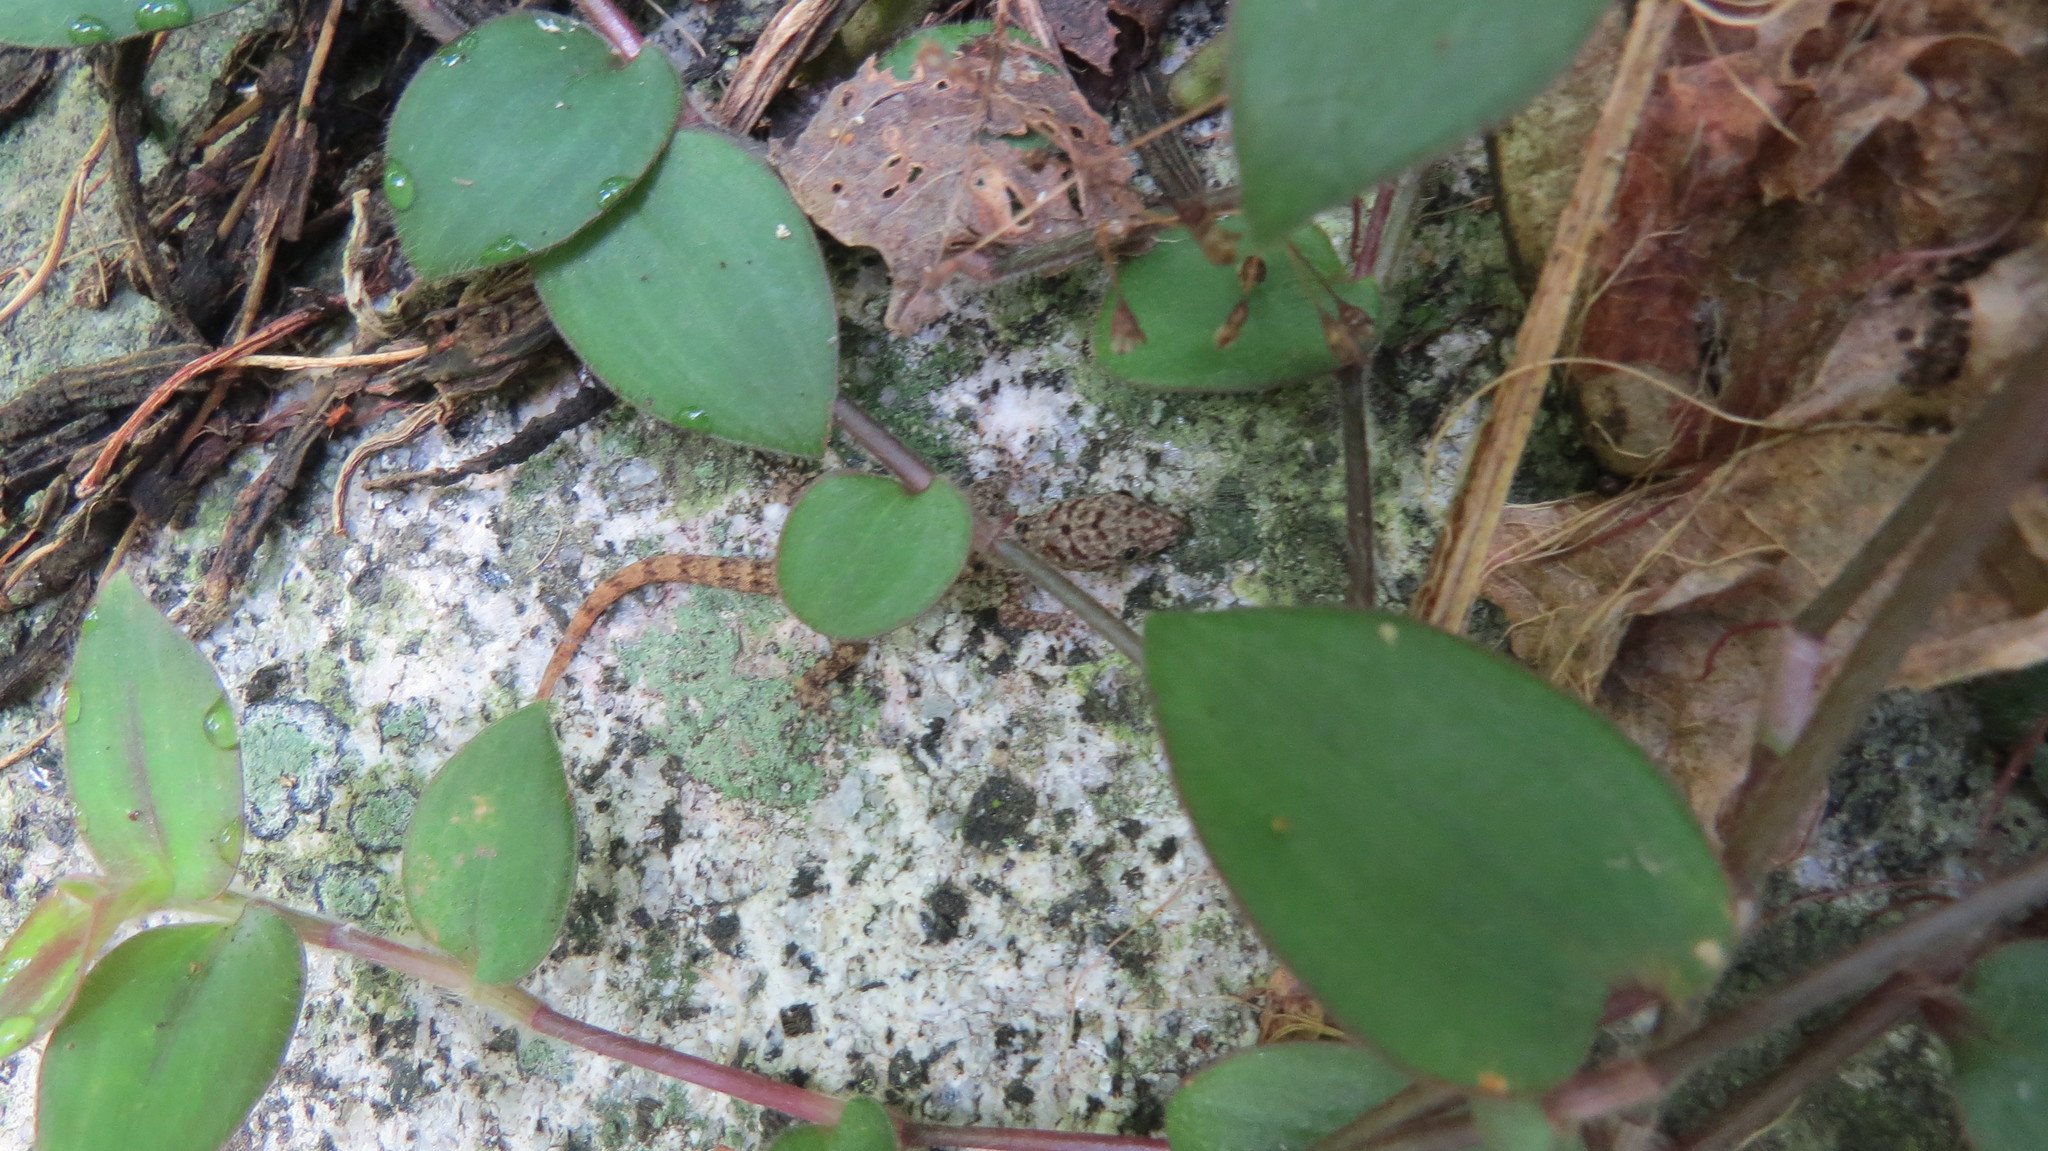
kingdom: Animalia
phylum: Chordata
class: Squamata
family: Sphaerodactylidae
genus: Gonatodes
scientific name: Gonatodes albogularis
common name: Yellow-headed gecko
